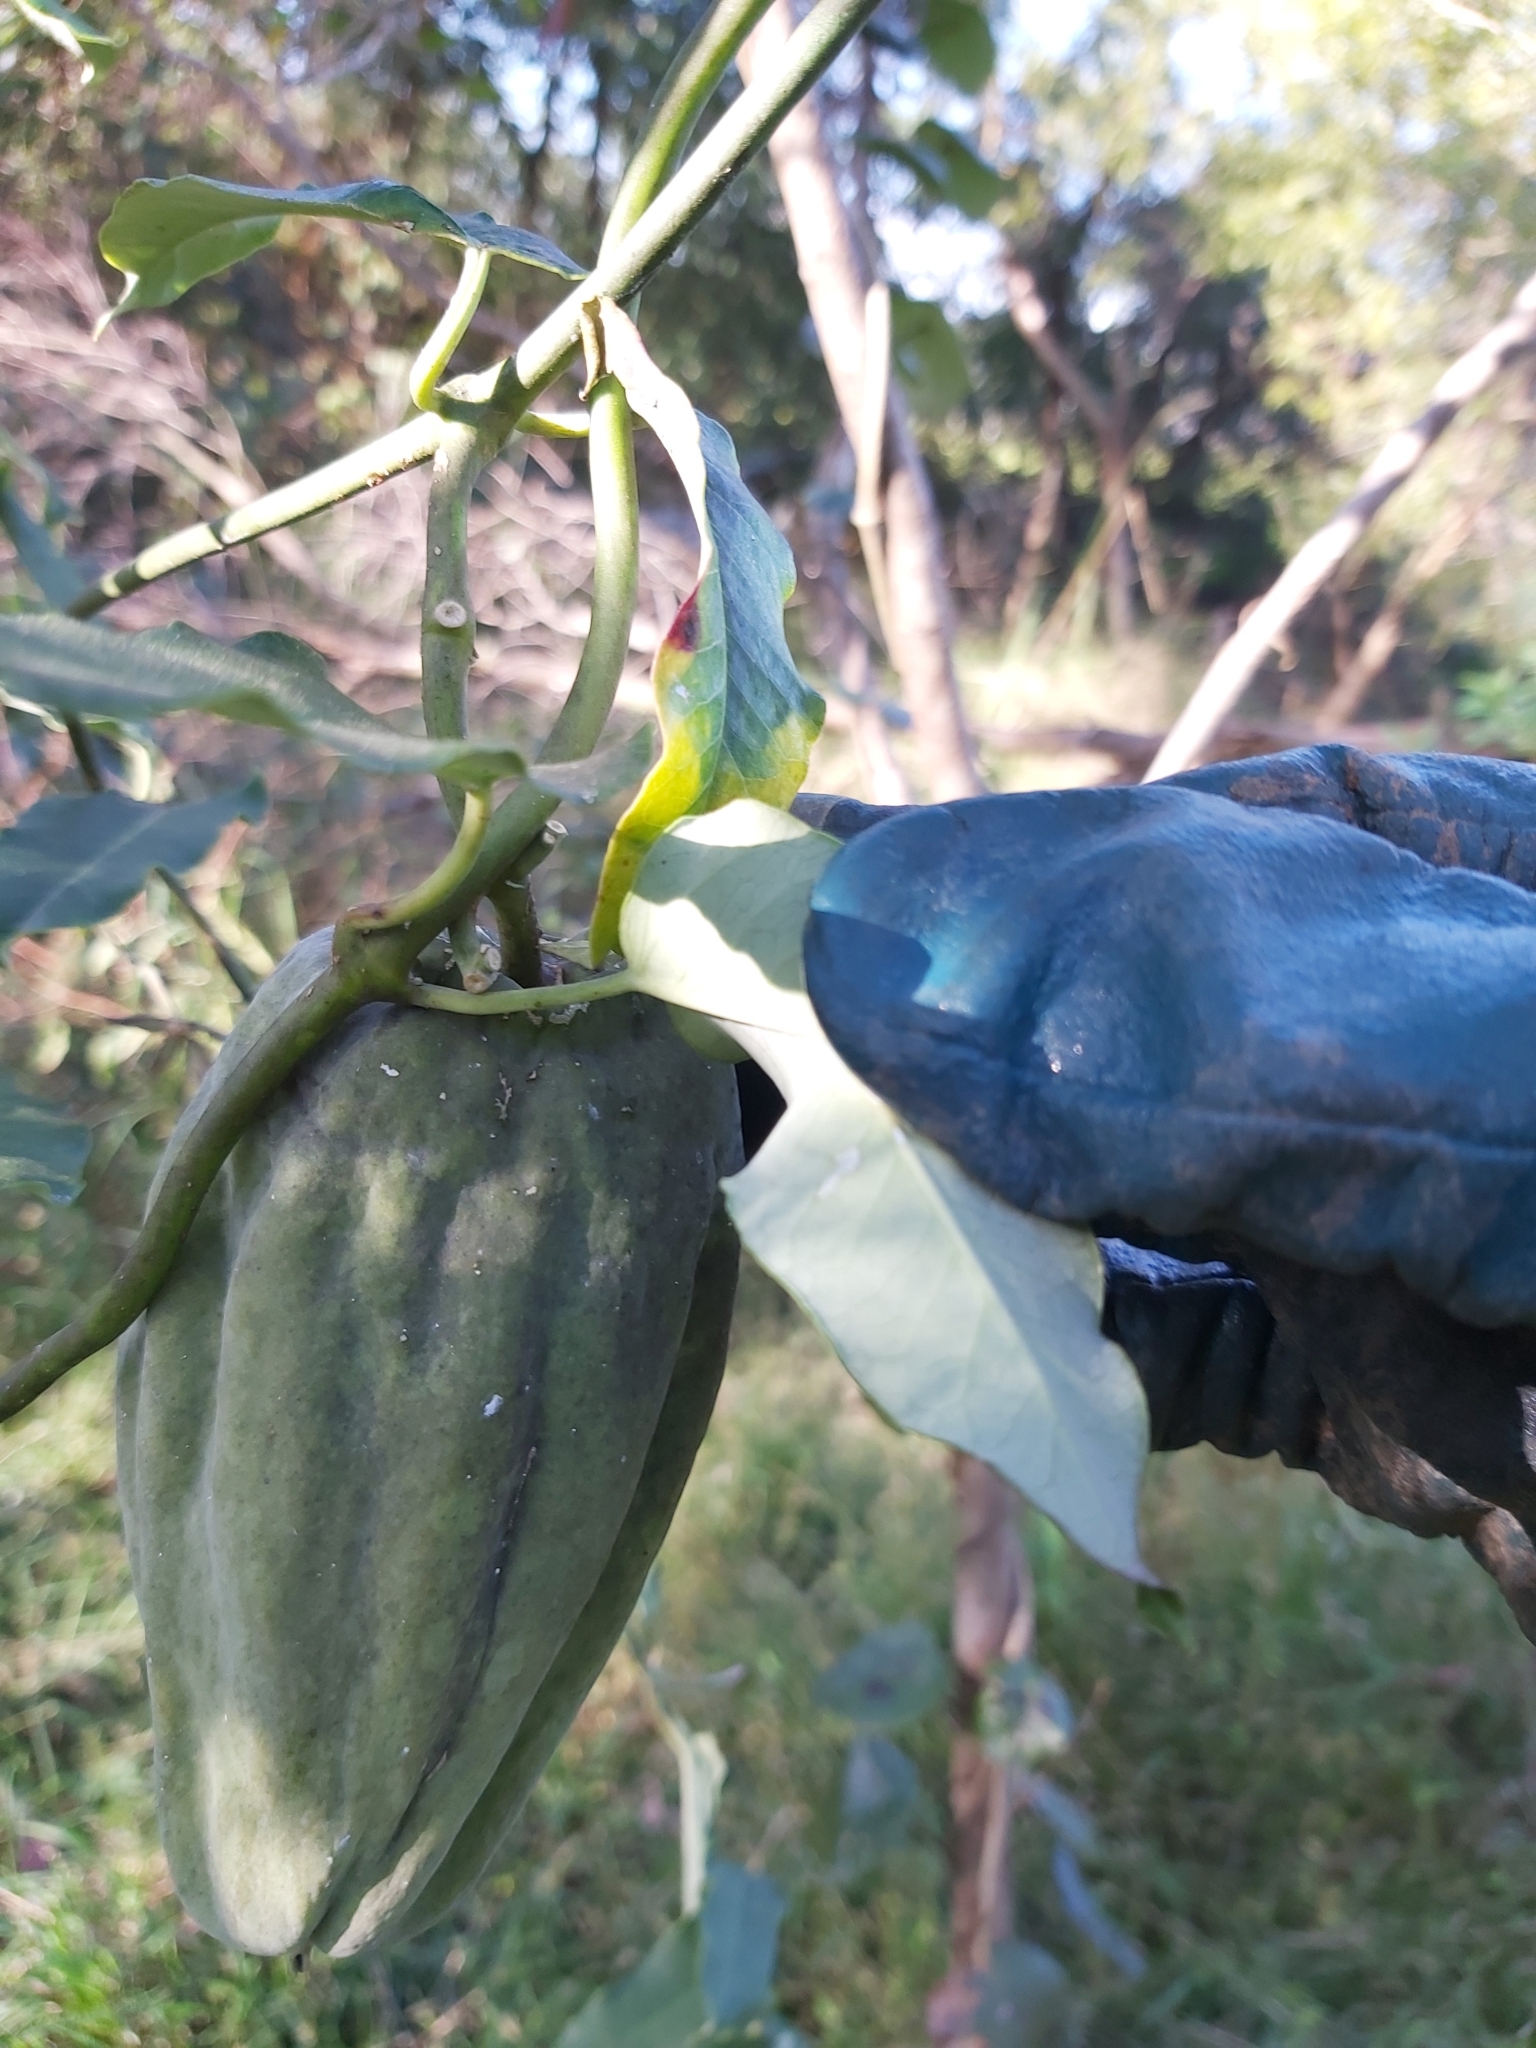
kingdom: Plantae
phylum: Tracheophyta
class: Magnoliopsida
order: Gentianales
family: Apocynaceae
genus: Araujia
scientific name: Araujia sericifera
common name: White bladderflower
